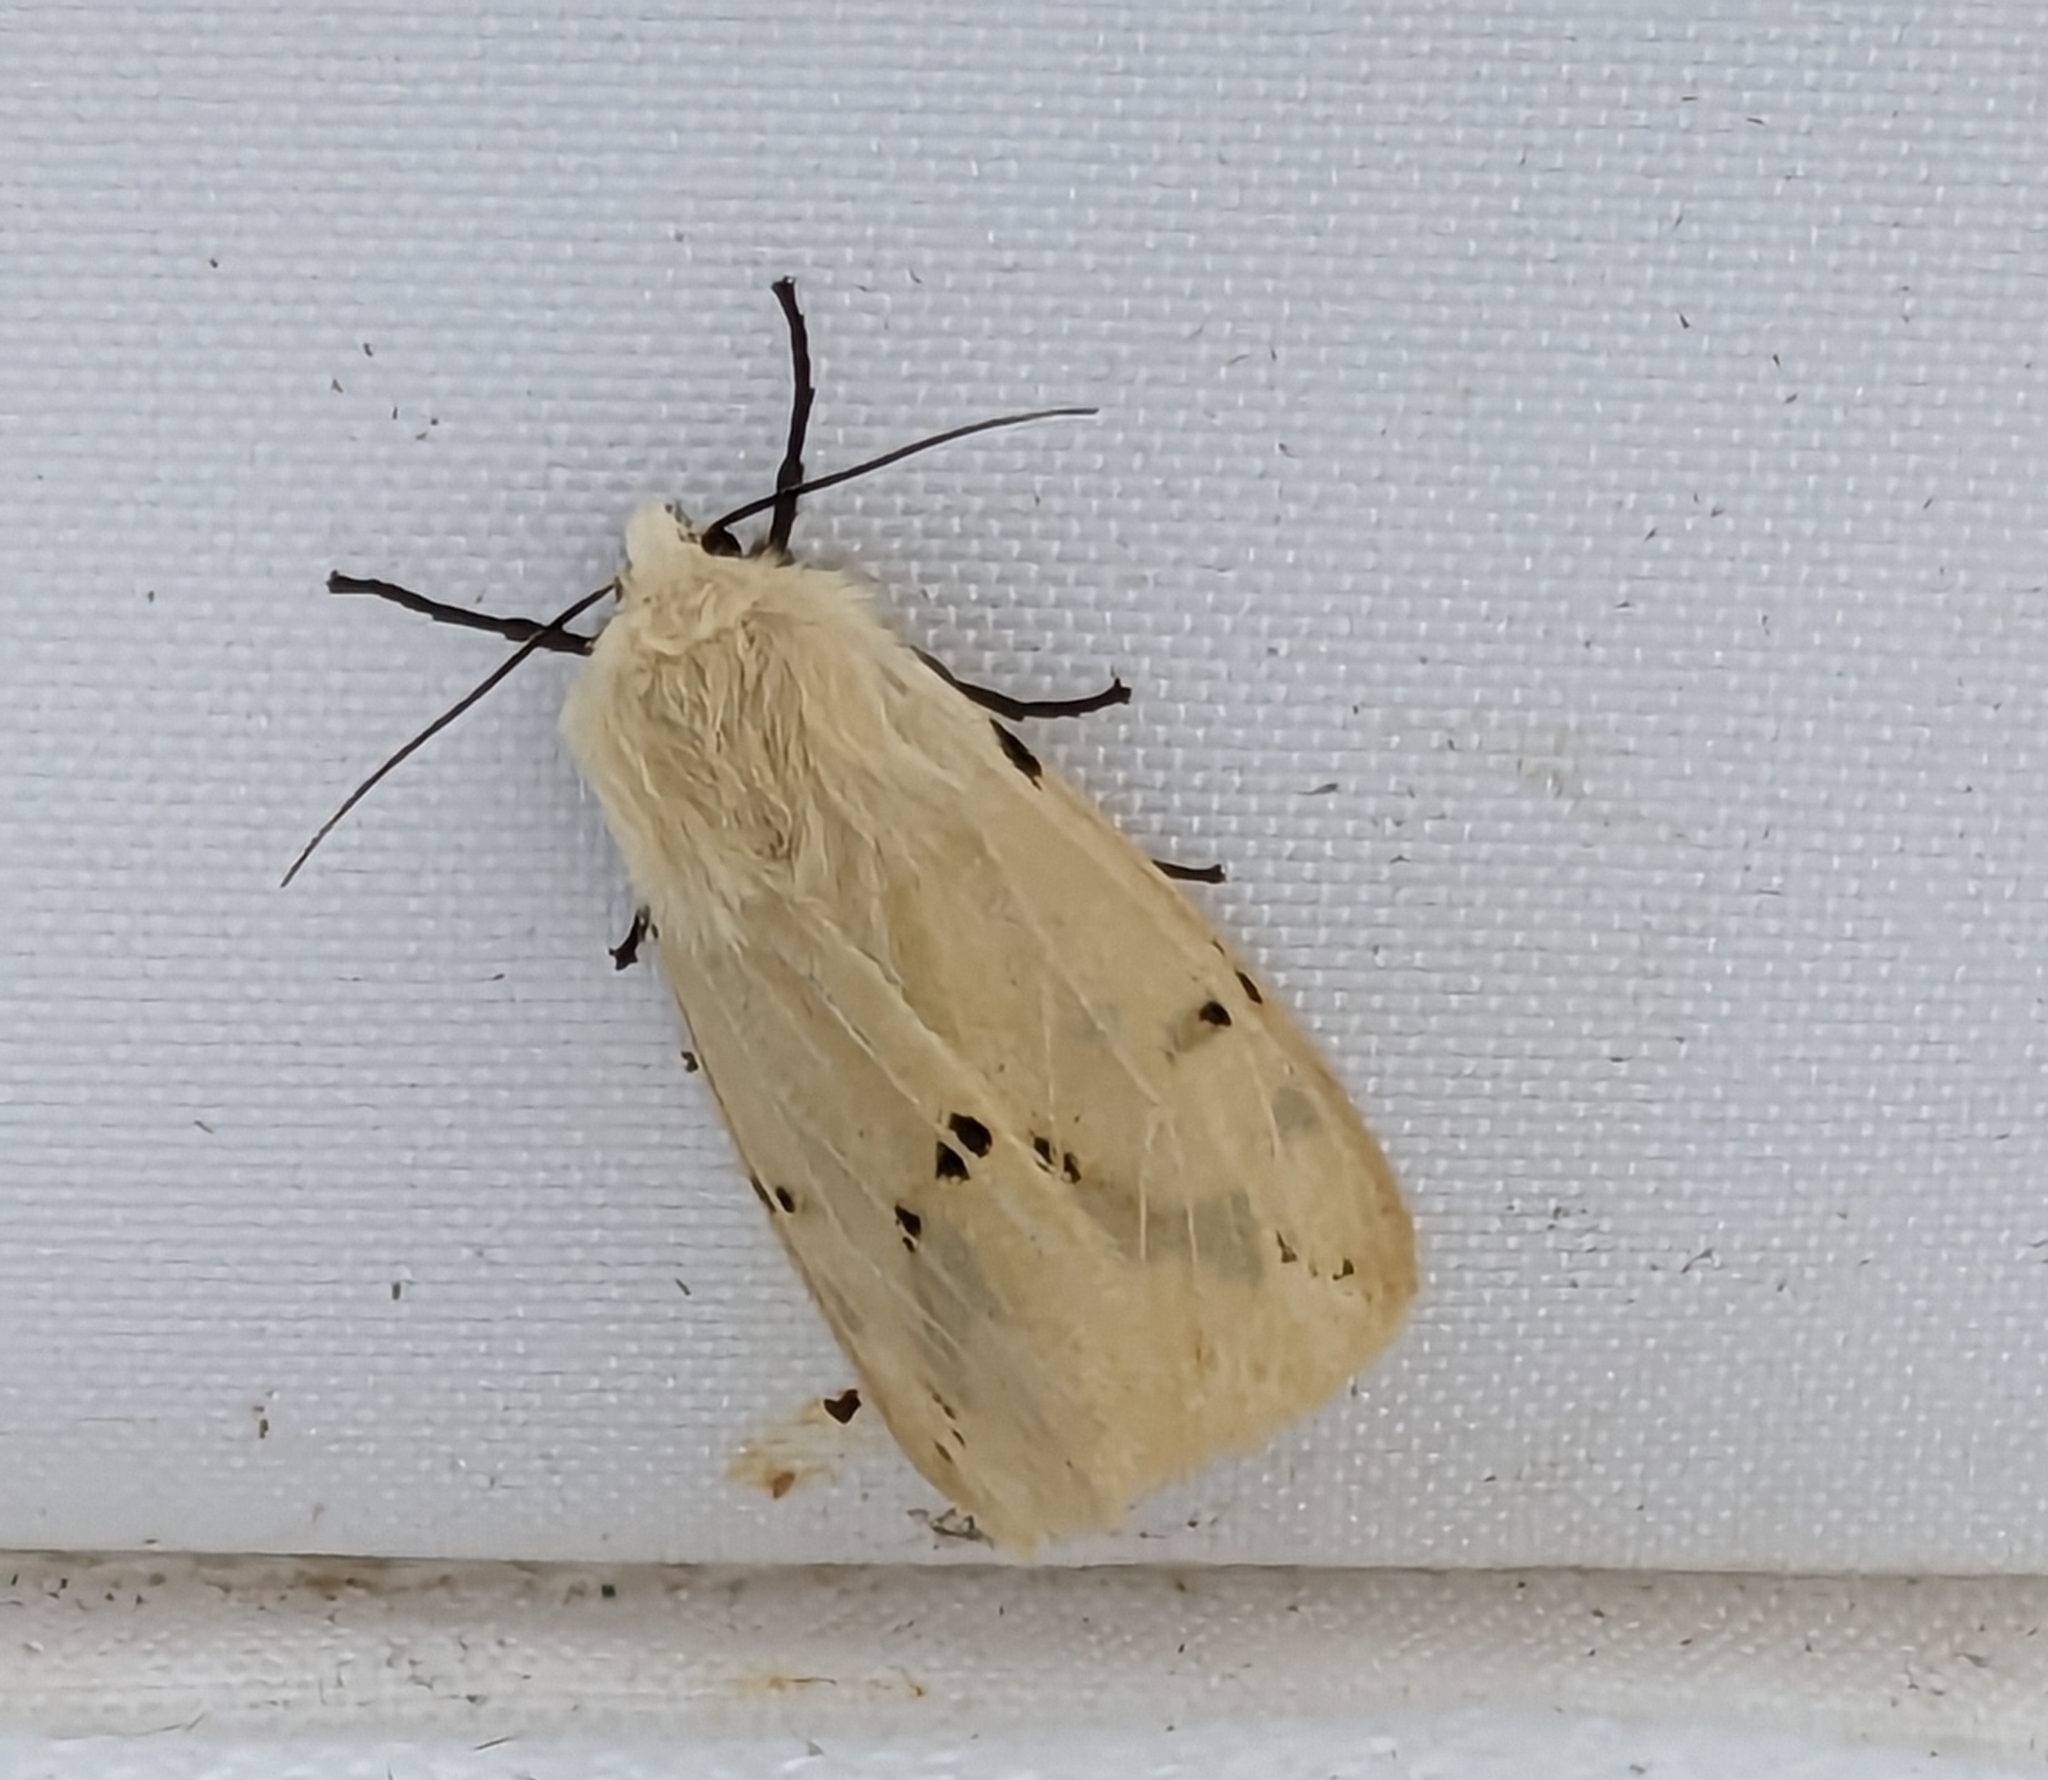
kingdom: Animalia
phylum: Arthropoda
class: Insecta
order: Lepidoptera
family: Erebidae
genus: Spilarctia
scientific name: Spilarctia lutea
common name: Buff ermine
